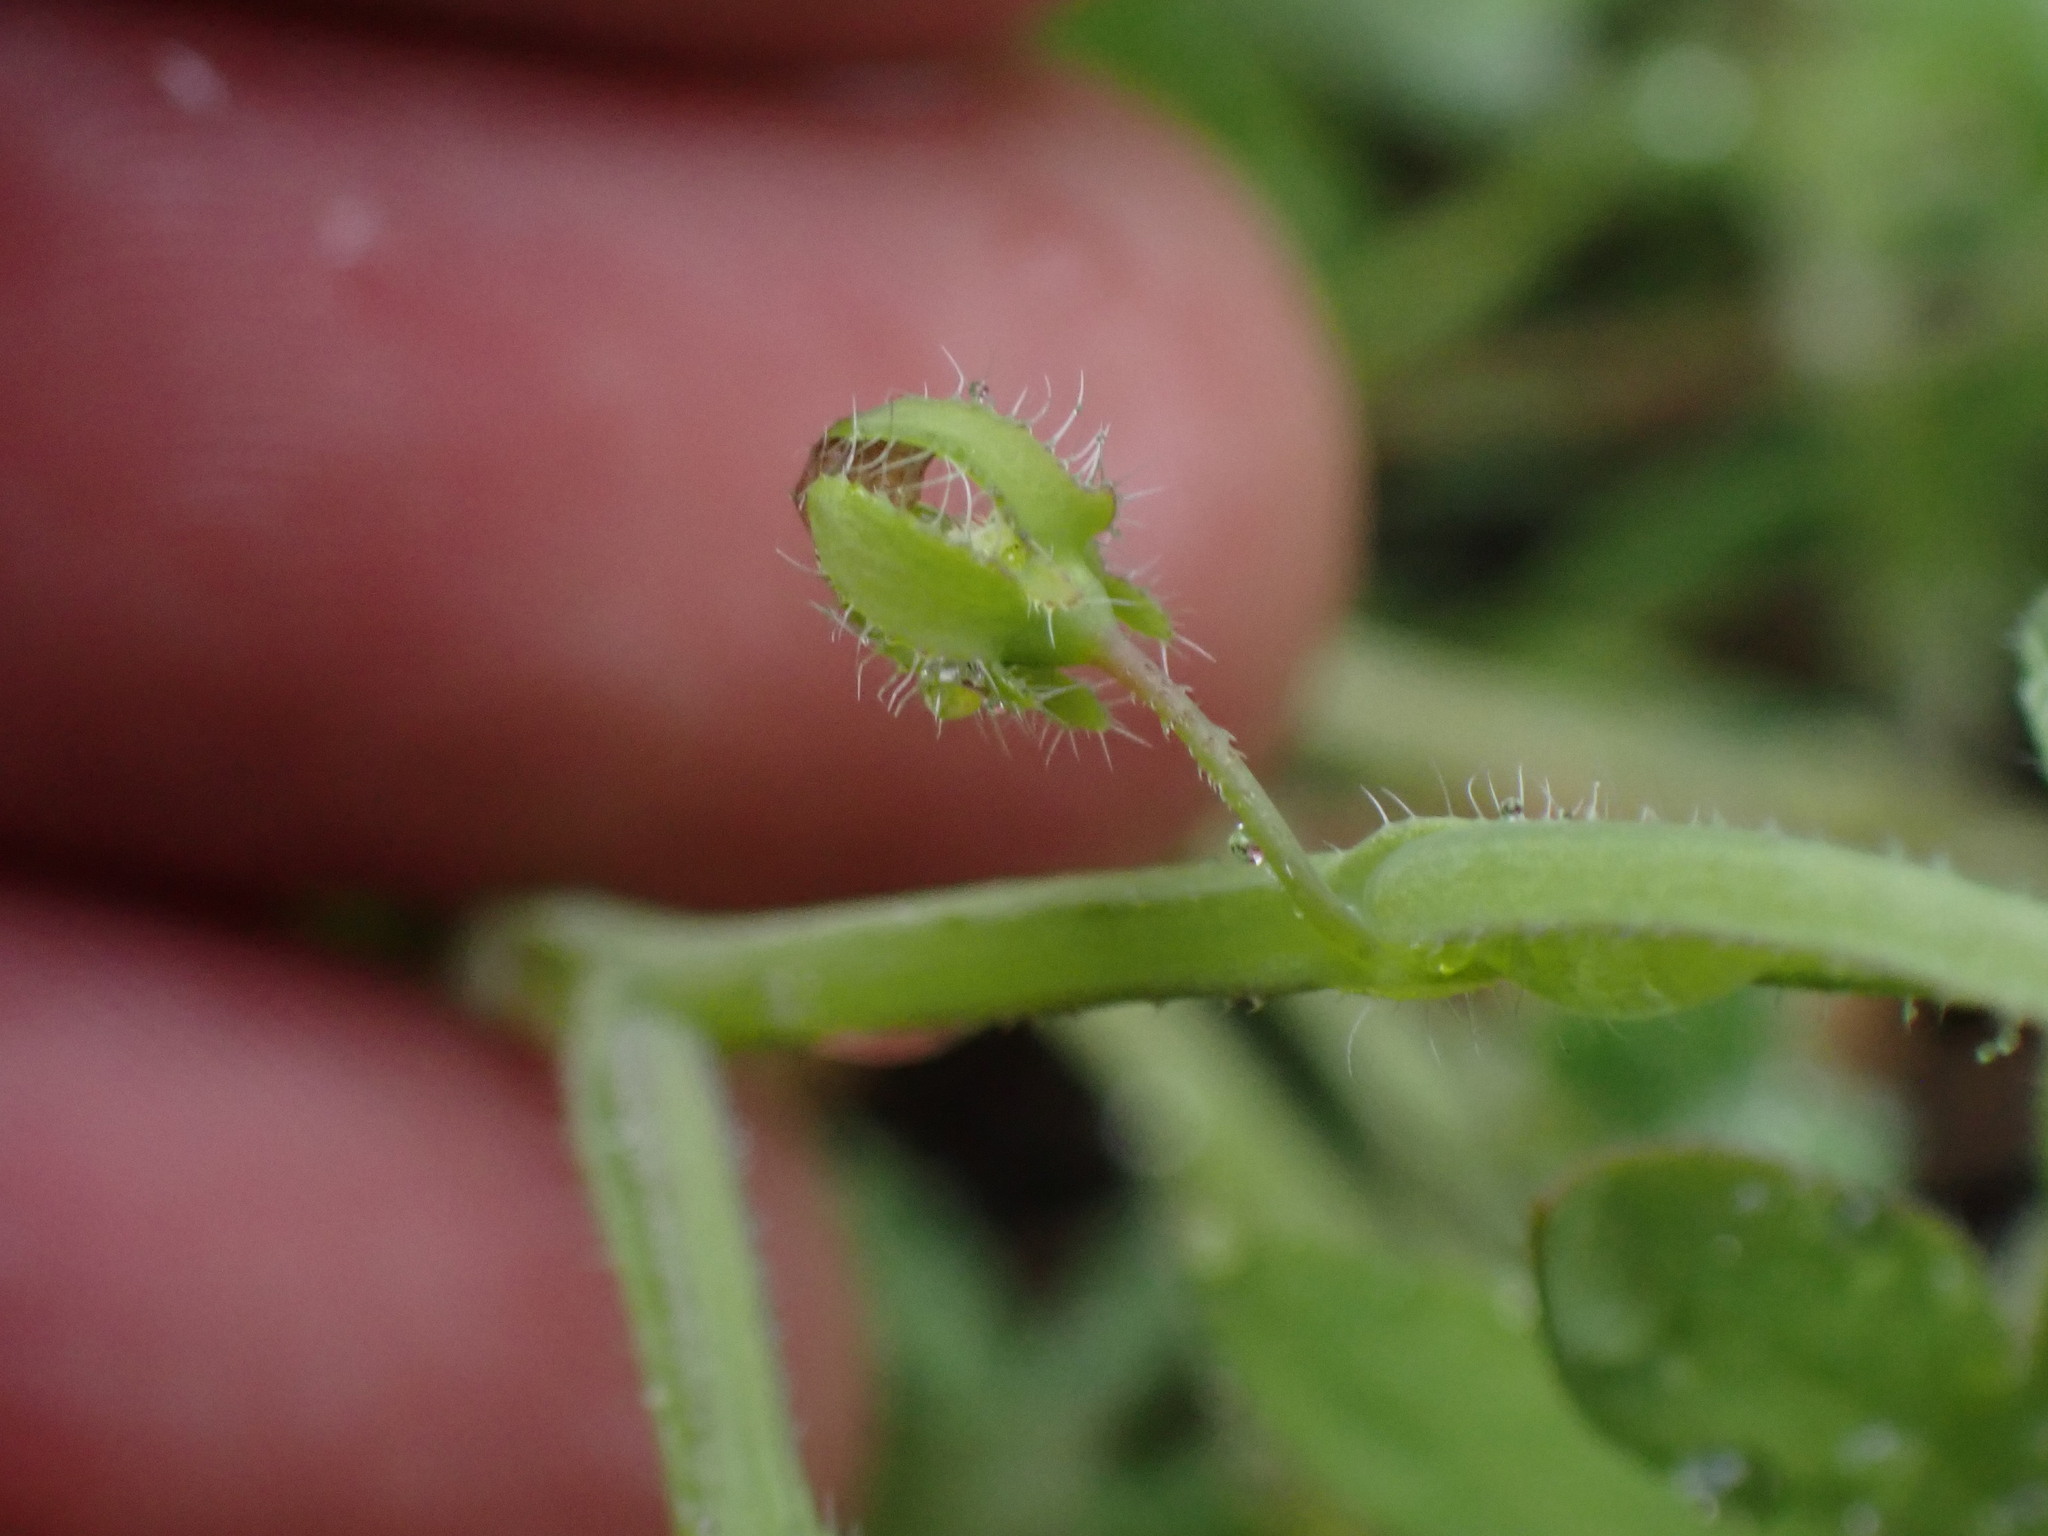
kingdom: Plantae
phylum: Tracheophyta
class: Magnoliopsida
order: Boraginales
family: Hydrophyllaceae
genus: Nemophila
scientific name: Nemophila breviflora
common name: Great basin baby-blue-eyes
